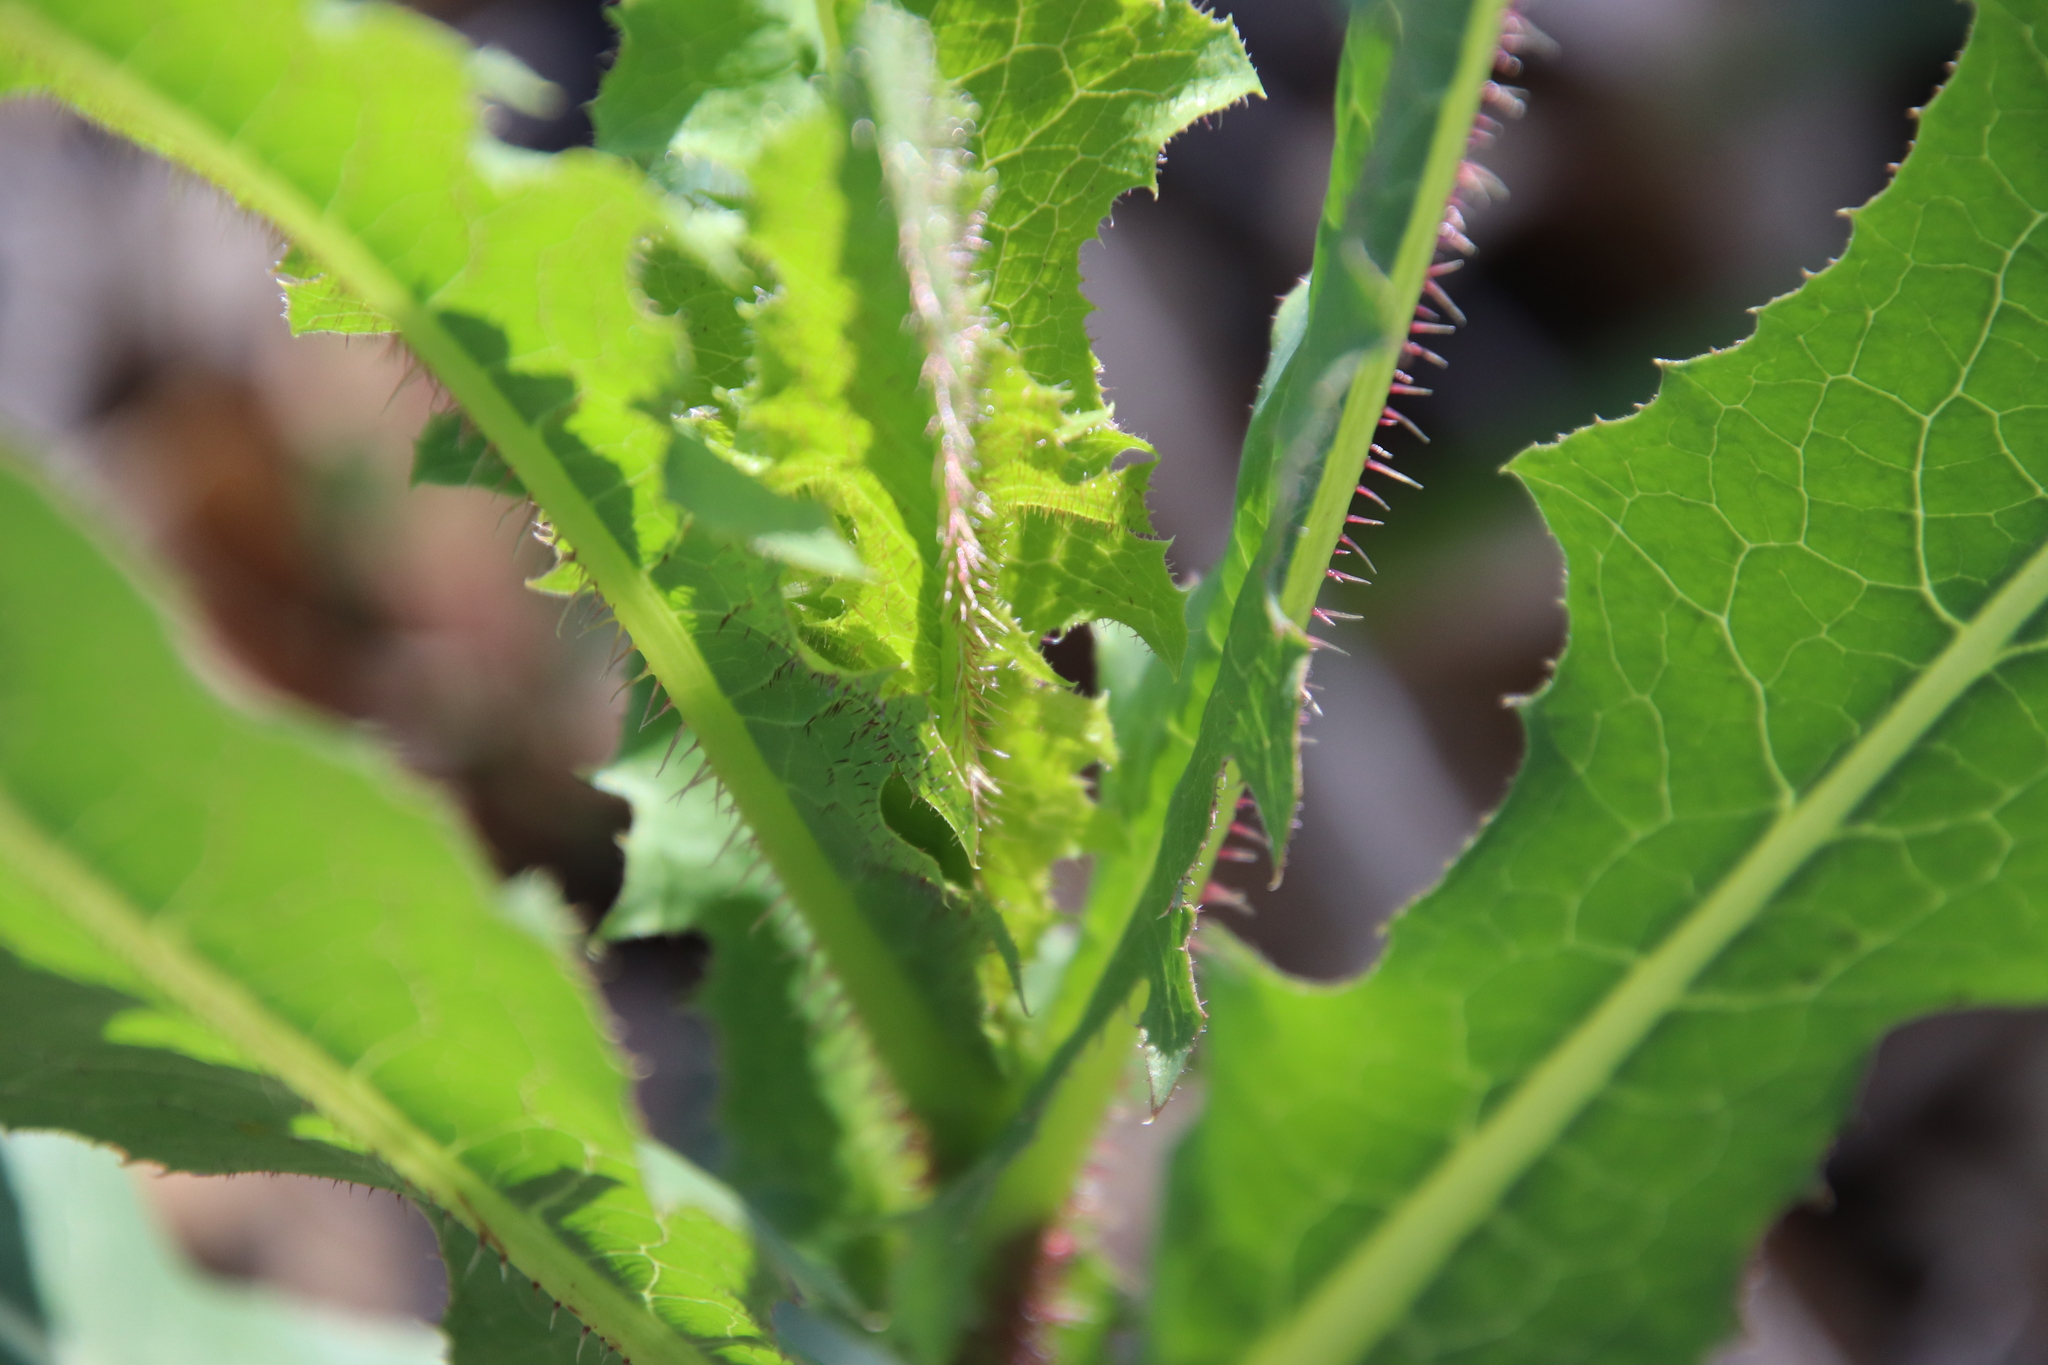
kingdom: Plantae
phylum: Tracheophyta
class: Magnoliopsida
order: Asterales
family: Asteraceae
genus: Lactuca
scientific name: Lactuca serriola
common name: Prickly lettuce
